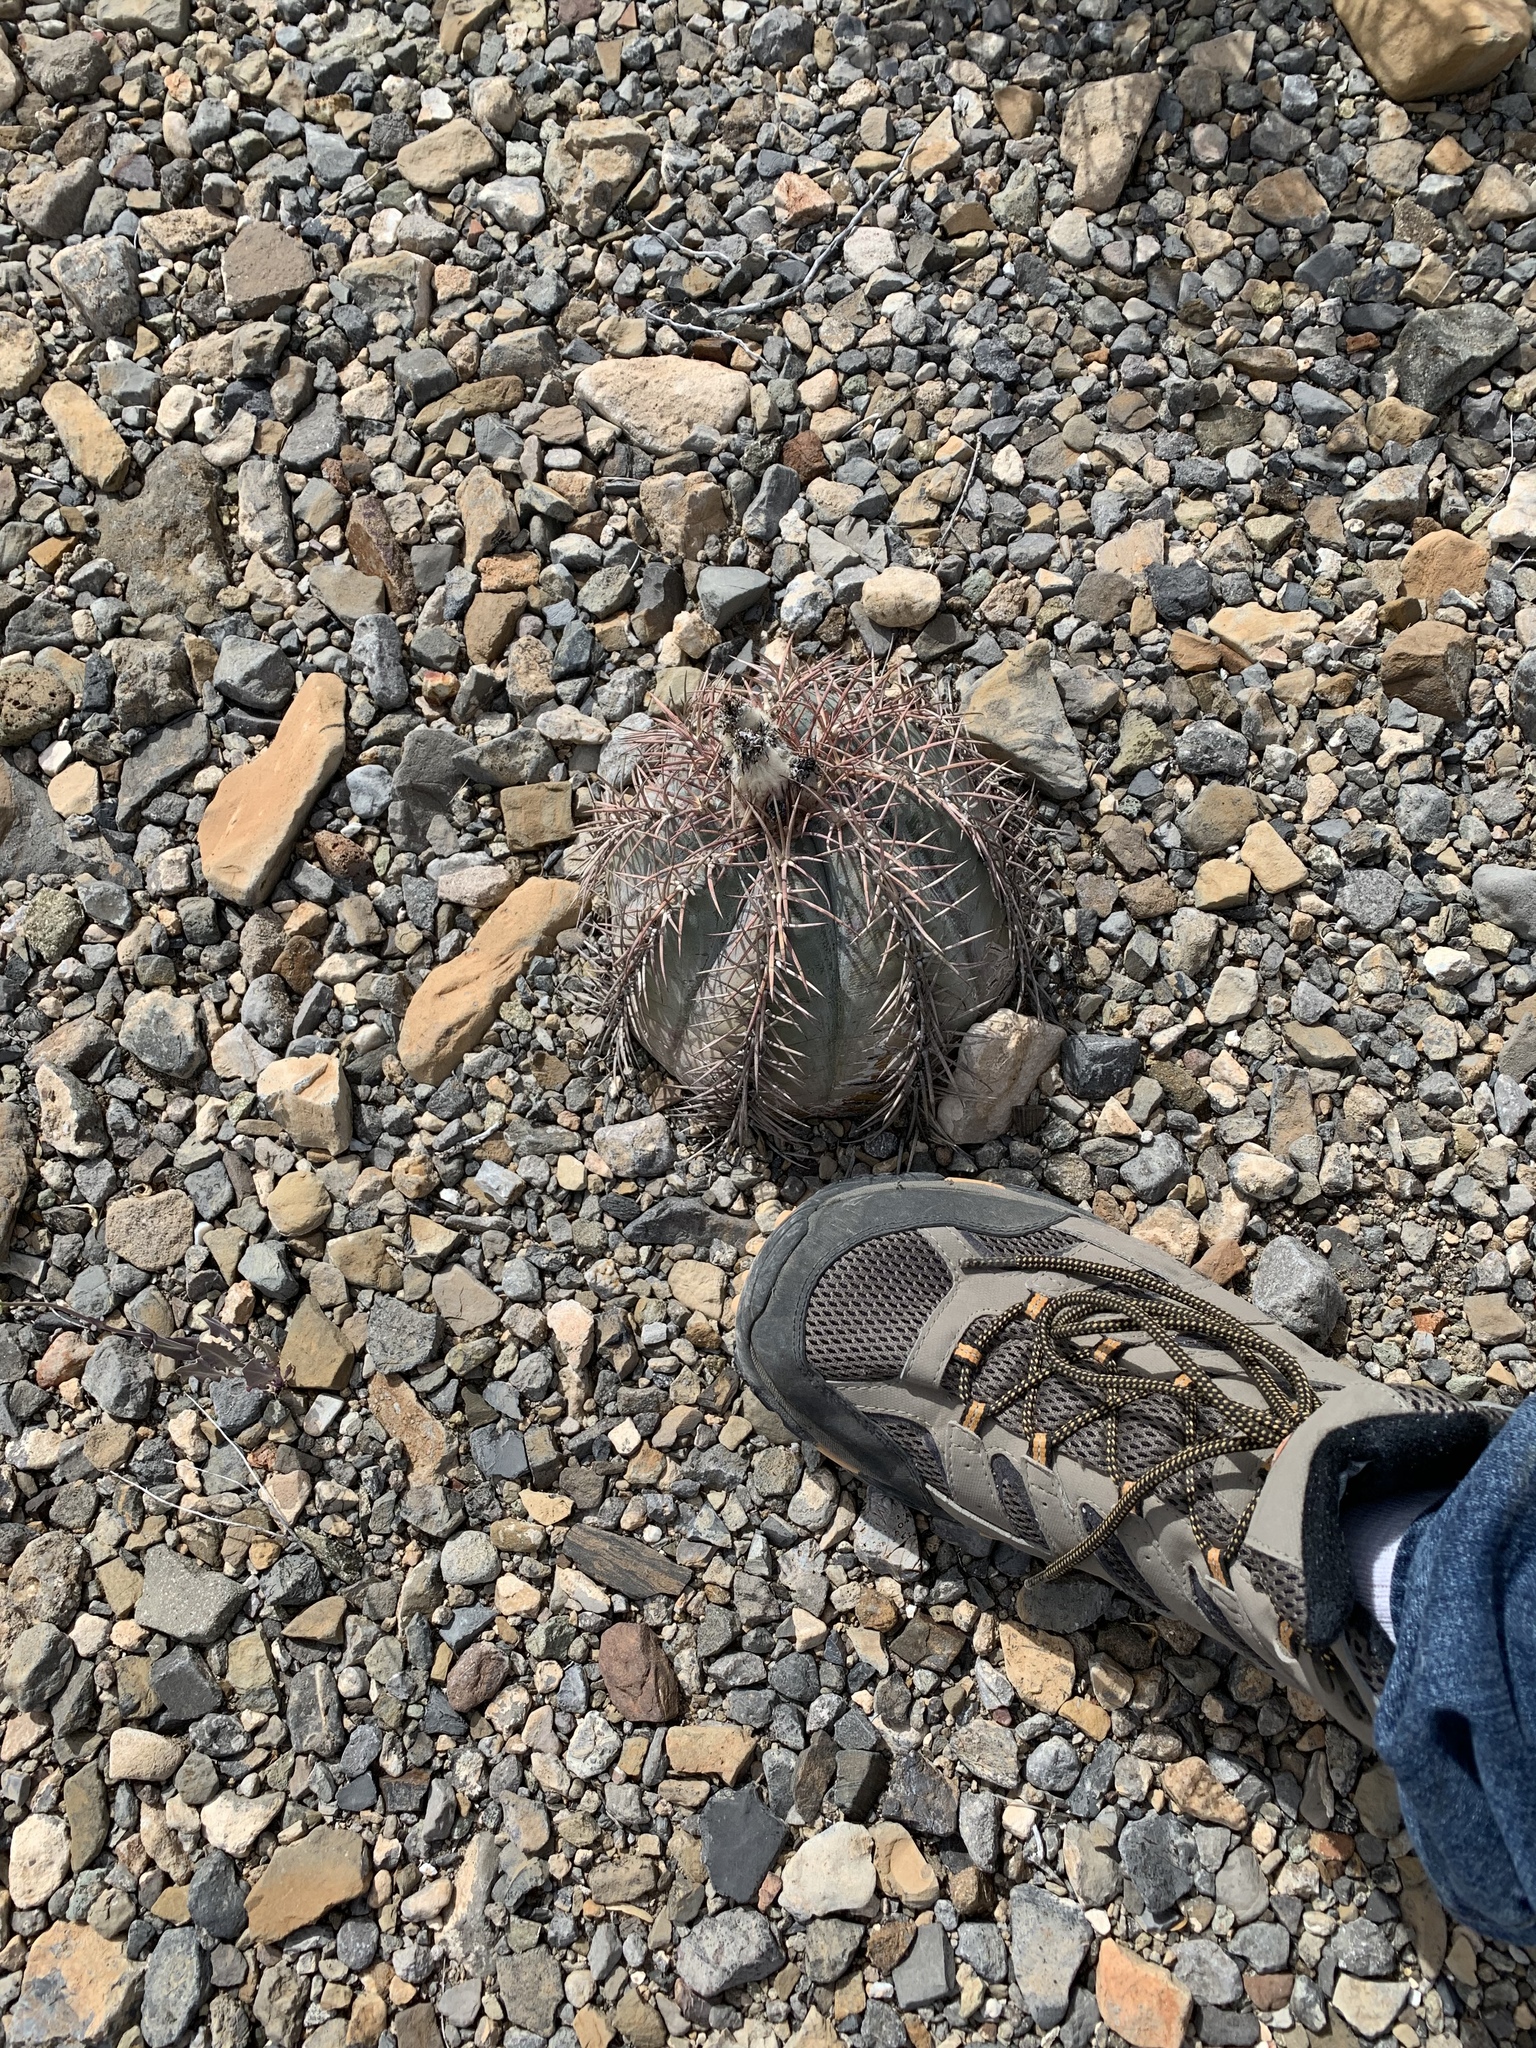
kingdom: Plantae
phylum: Tracheophyta
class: Magnoliopsida
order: Caryophyllales
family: Cactaceae
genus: Echinocactus
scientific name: Echinocactus horizonthalonius
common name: Devilshead
